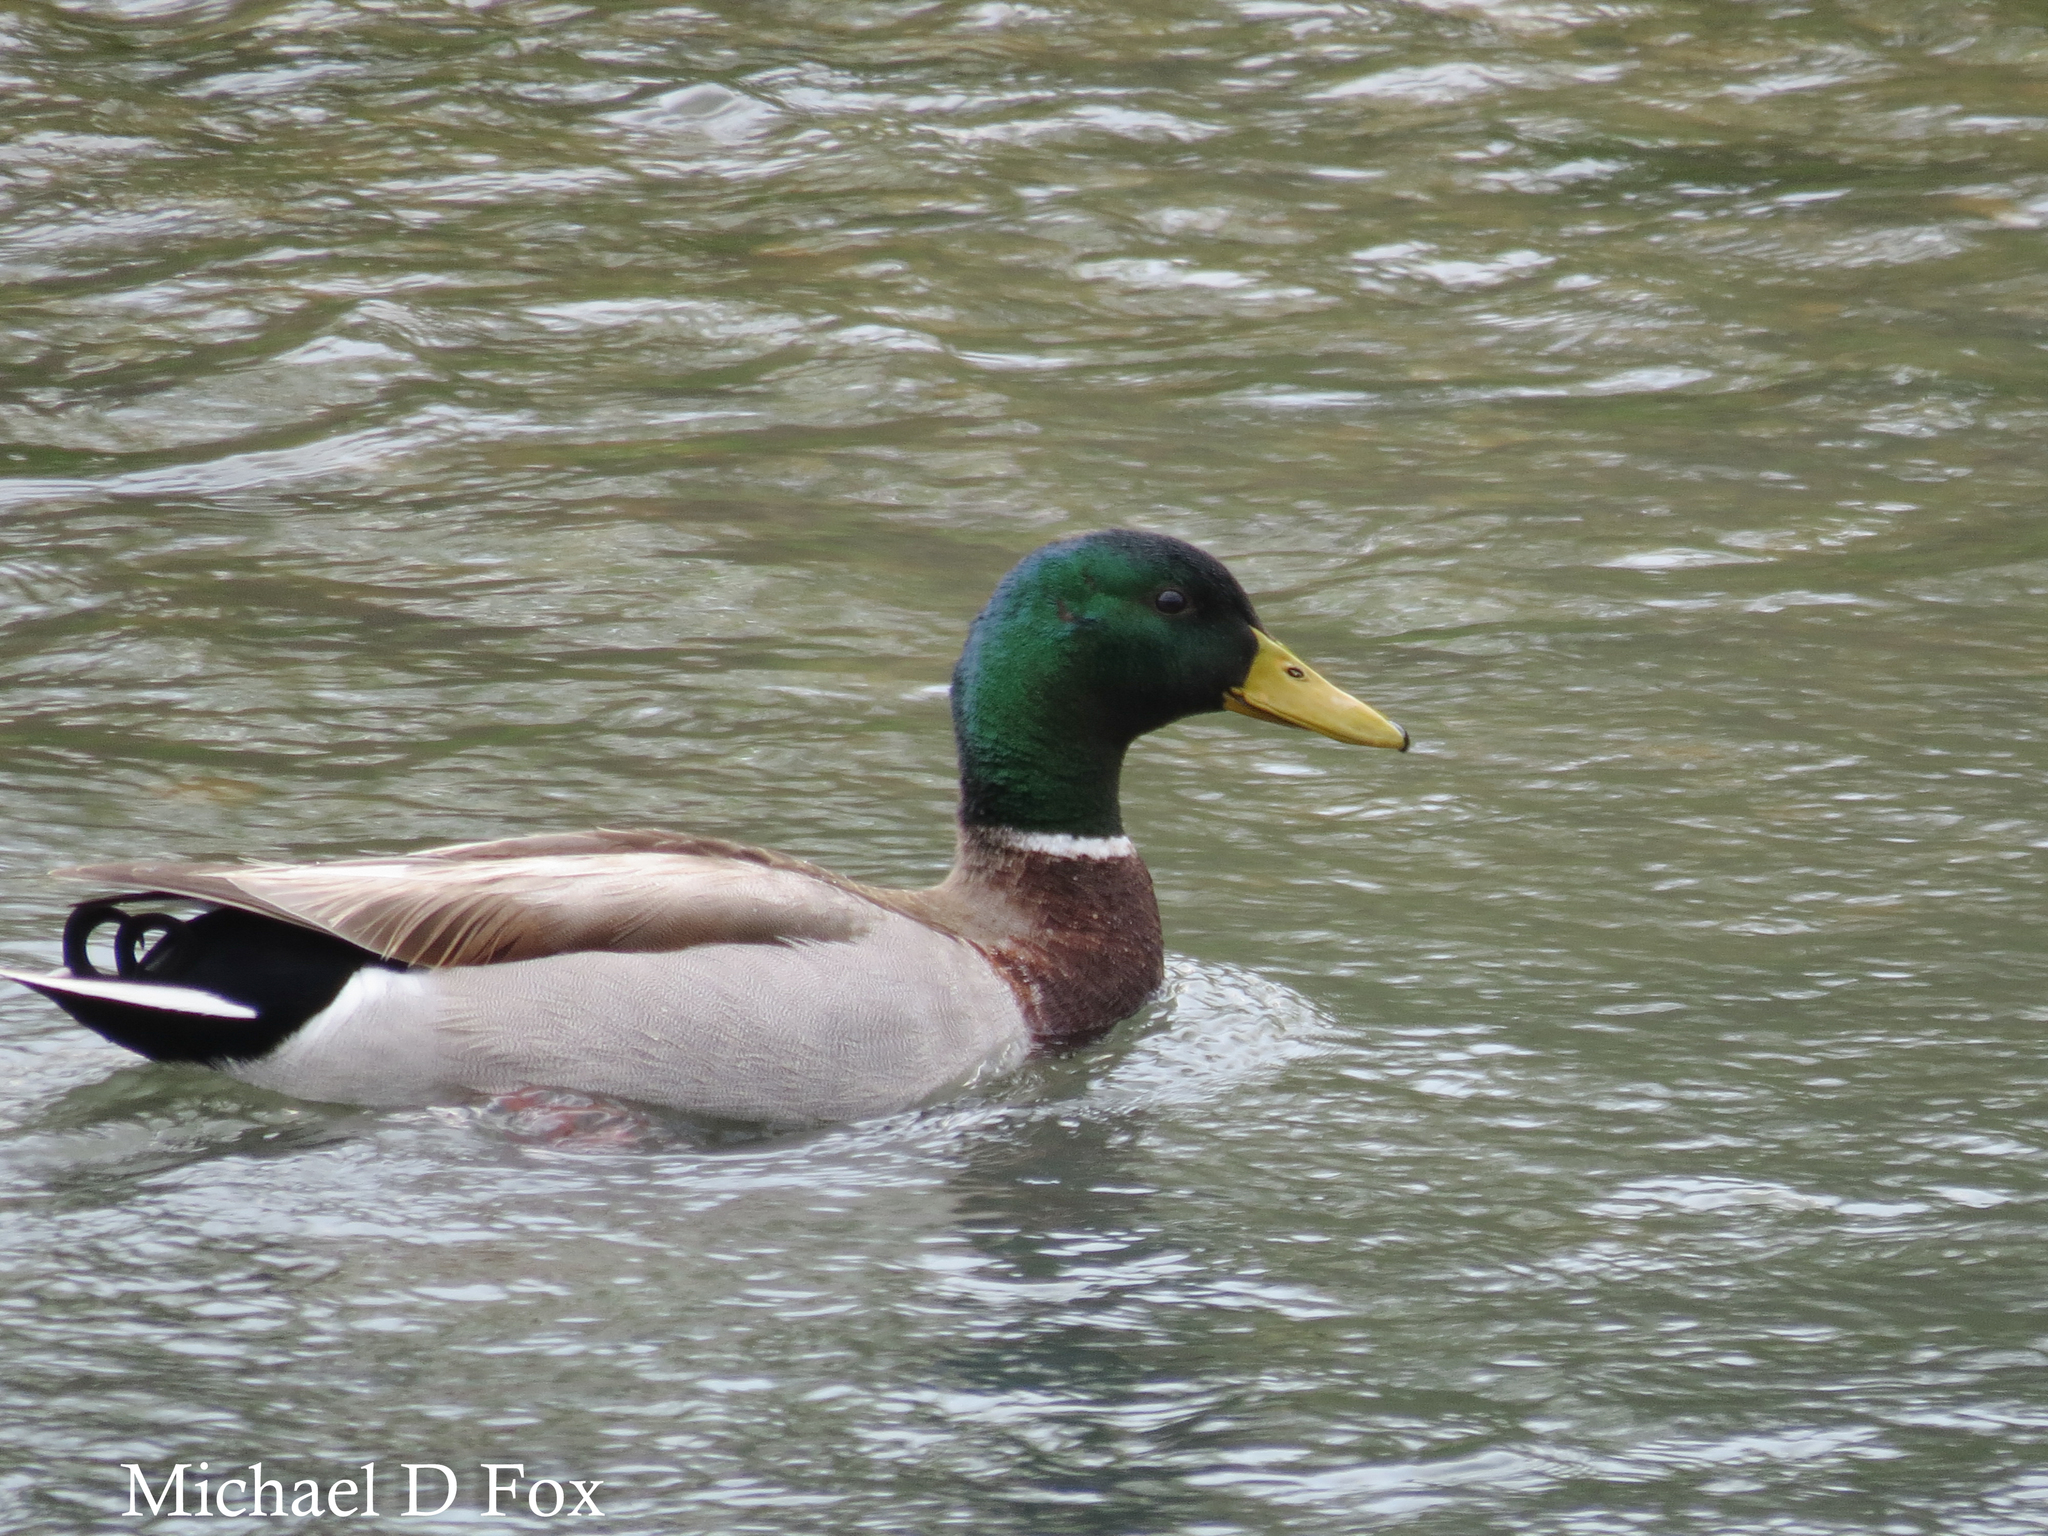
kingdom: Animalia
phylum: Chordata
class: Aves
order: Anseriformes
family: Anatidae
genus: Anas
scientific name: Anas platyrhynchos
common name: Mallard
